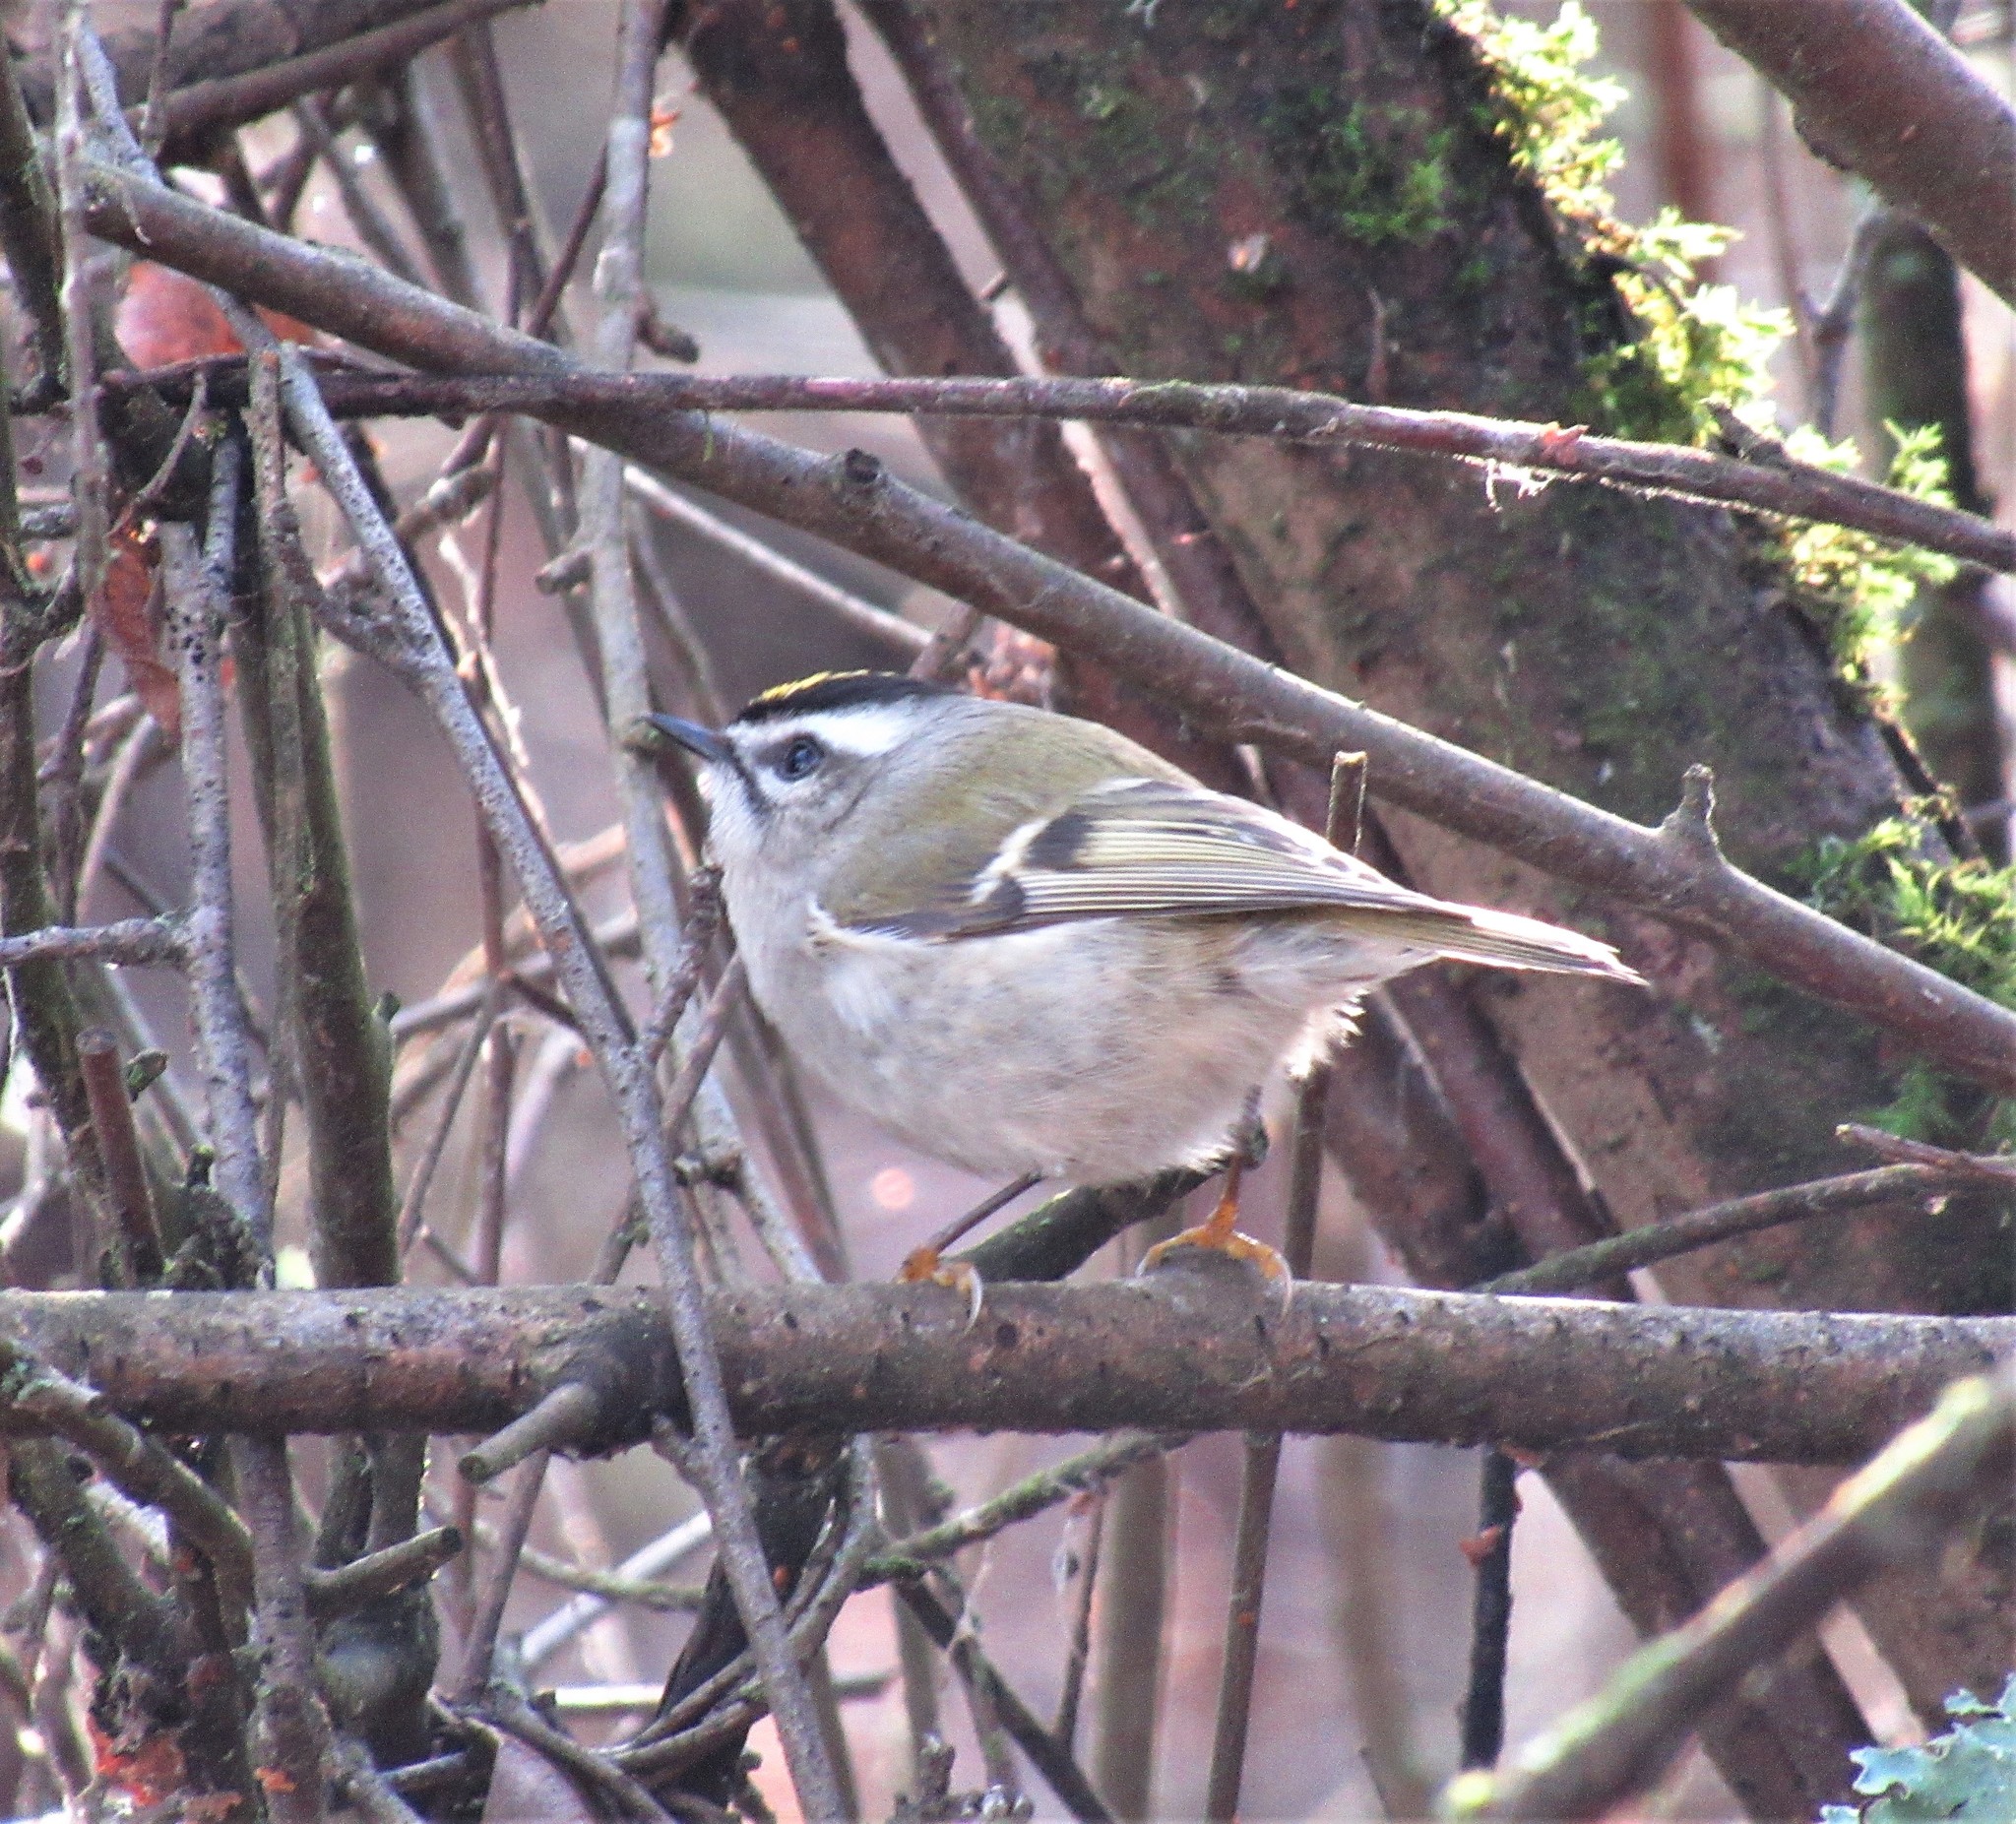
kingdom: Animalia
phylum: Chordata
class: Aves
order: Passeriformes
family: Regulidae
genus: Regulus
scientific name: Regulus satrapa
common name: Golden-crowned kinglet
